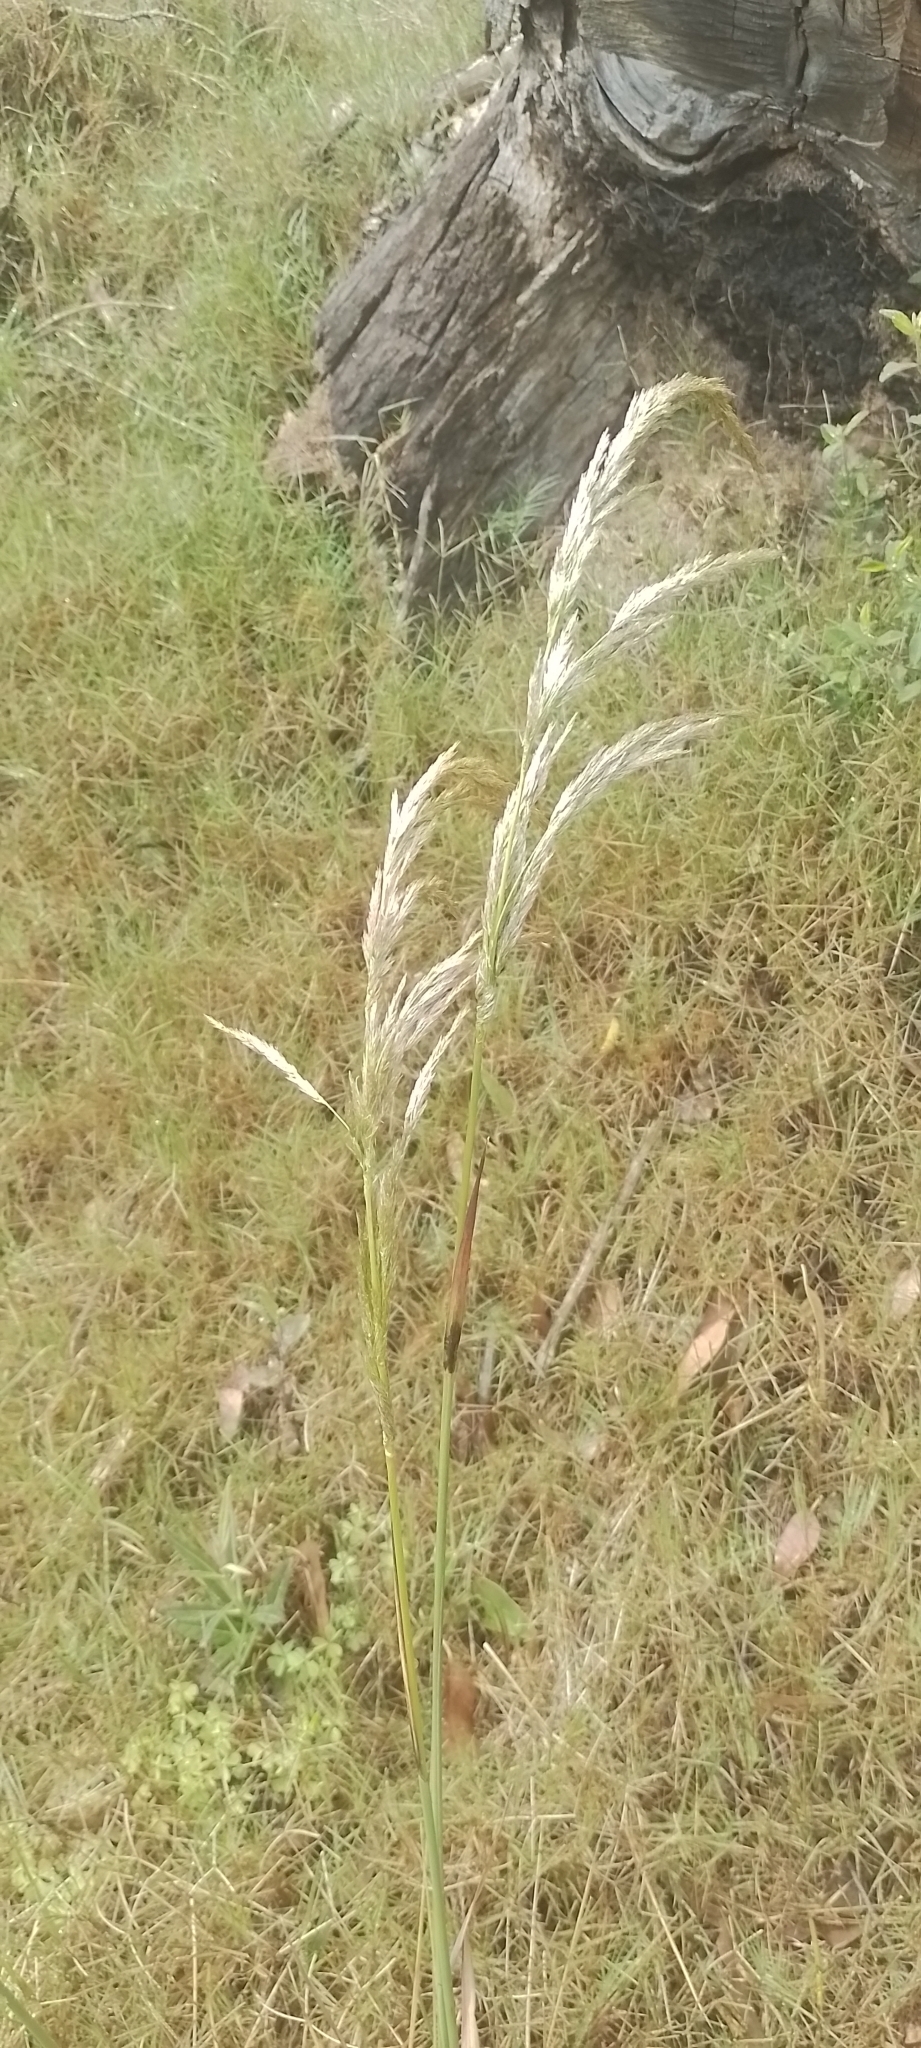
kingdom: Plantae
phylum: Tracheophyta
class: Liliopsida
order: Poales
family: Poaceae
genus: Cinnagrostis
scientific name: Cinnagrostis viridiflavescens
